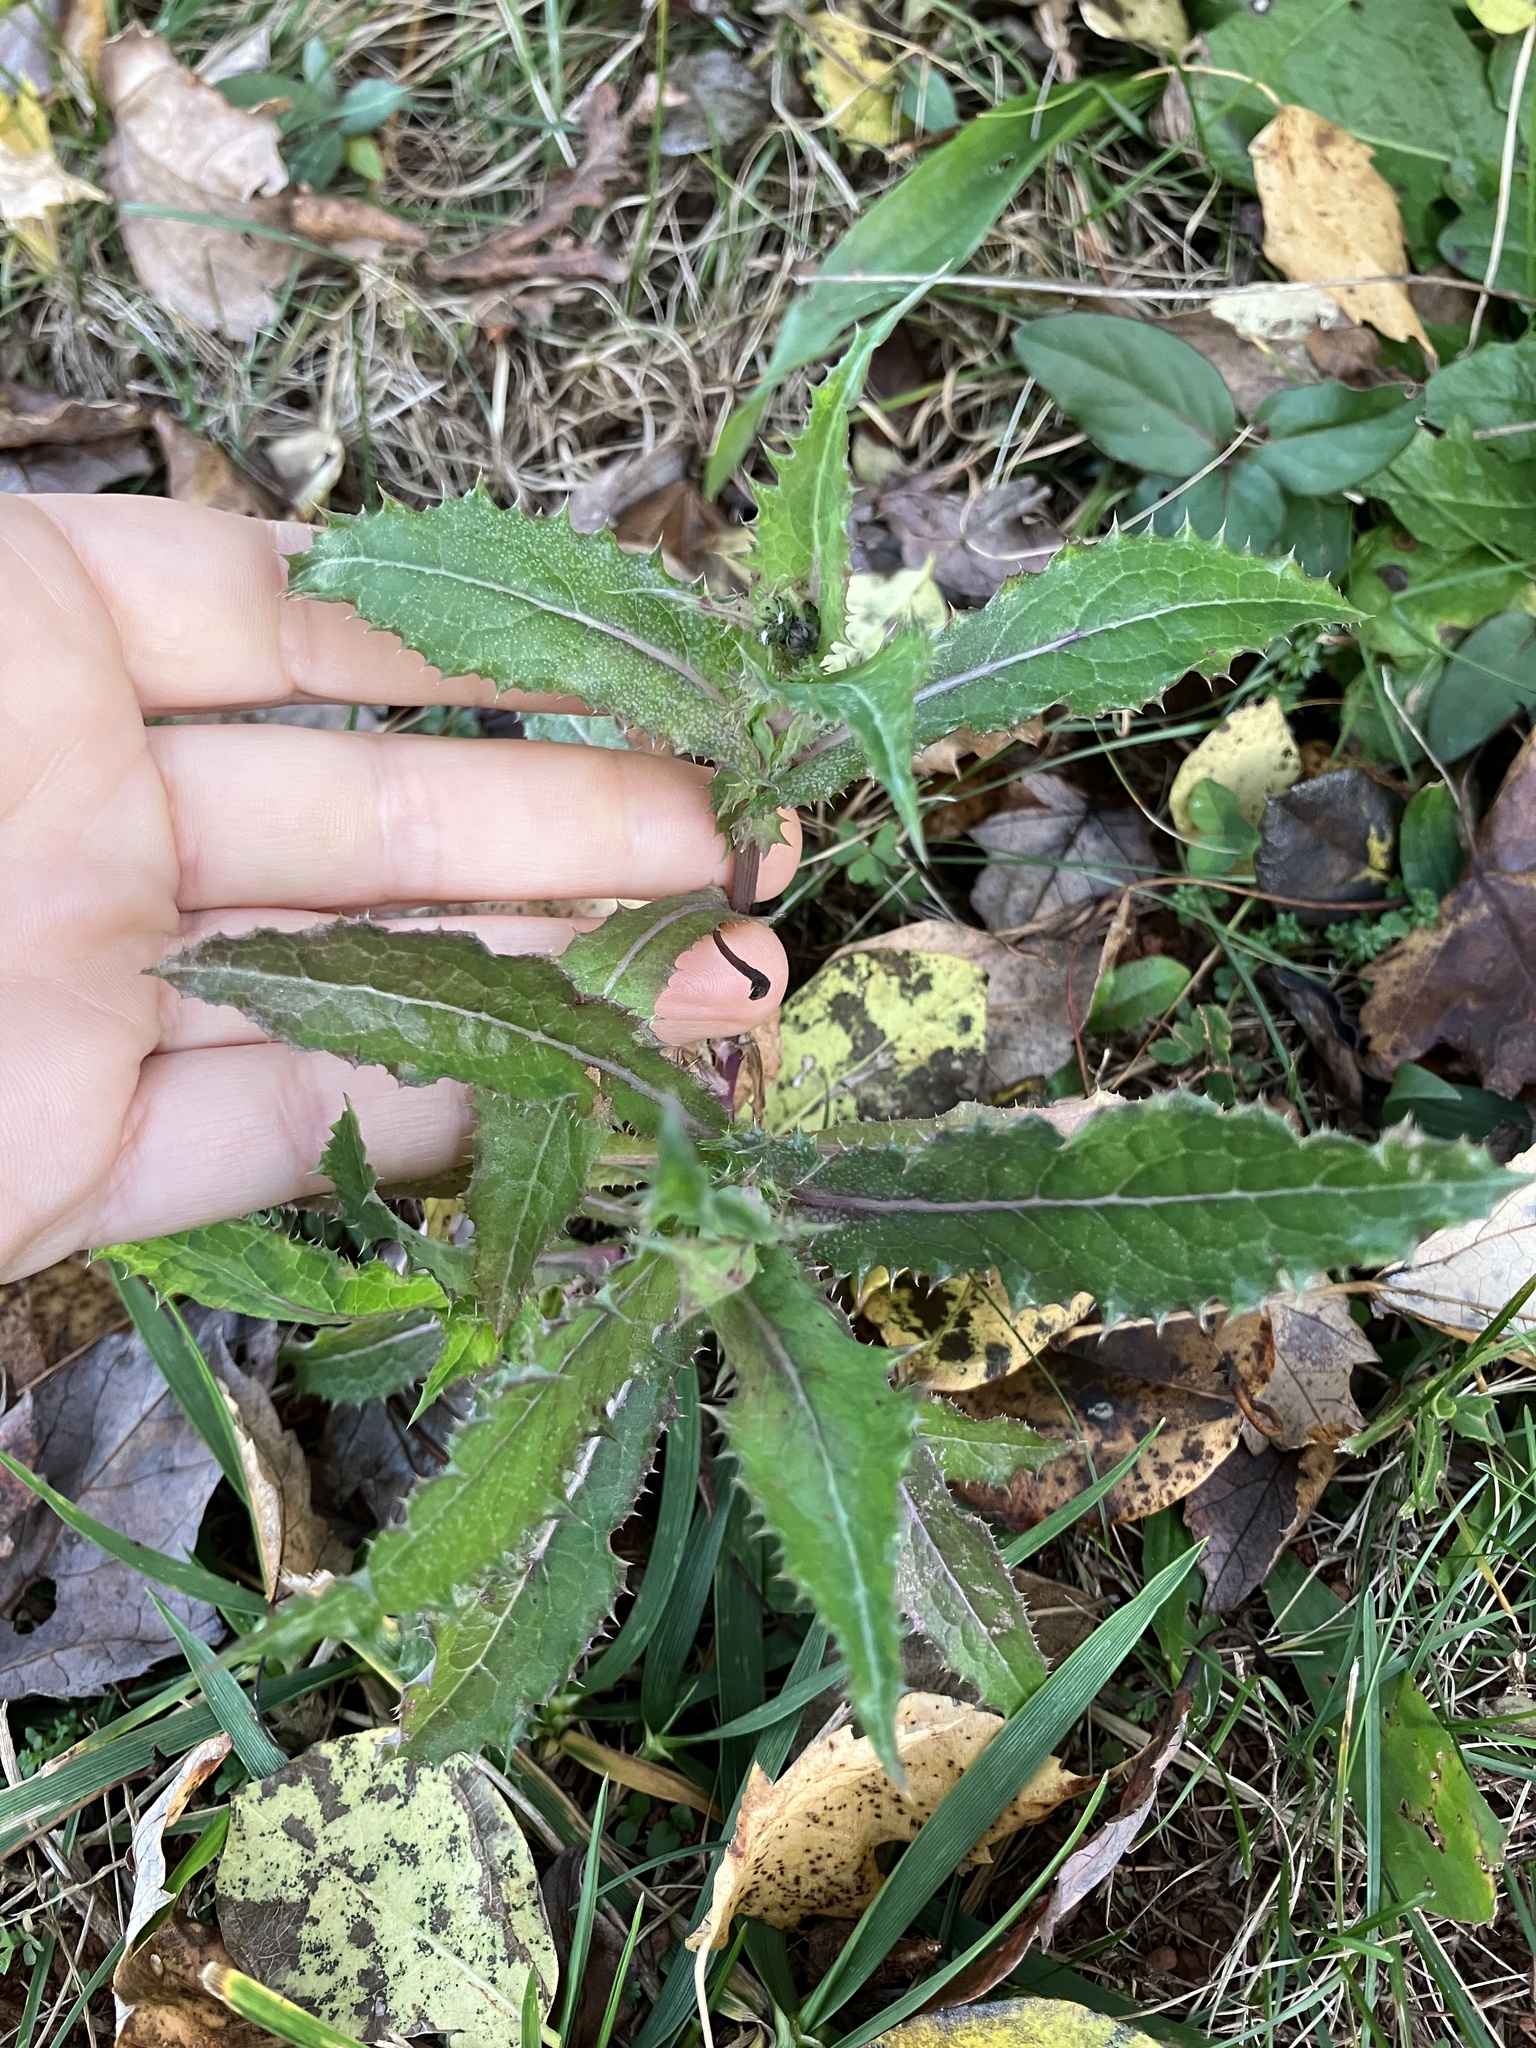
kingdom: Plantae
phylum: Tracheophyta
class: Magnoliopsida
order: Asterales
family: Asteraceae
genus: Sonchus
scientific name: Sonchus asper
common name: Prickly sow-thistle
